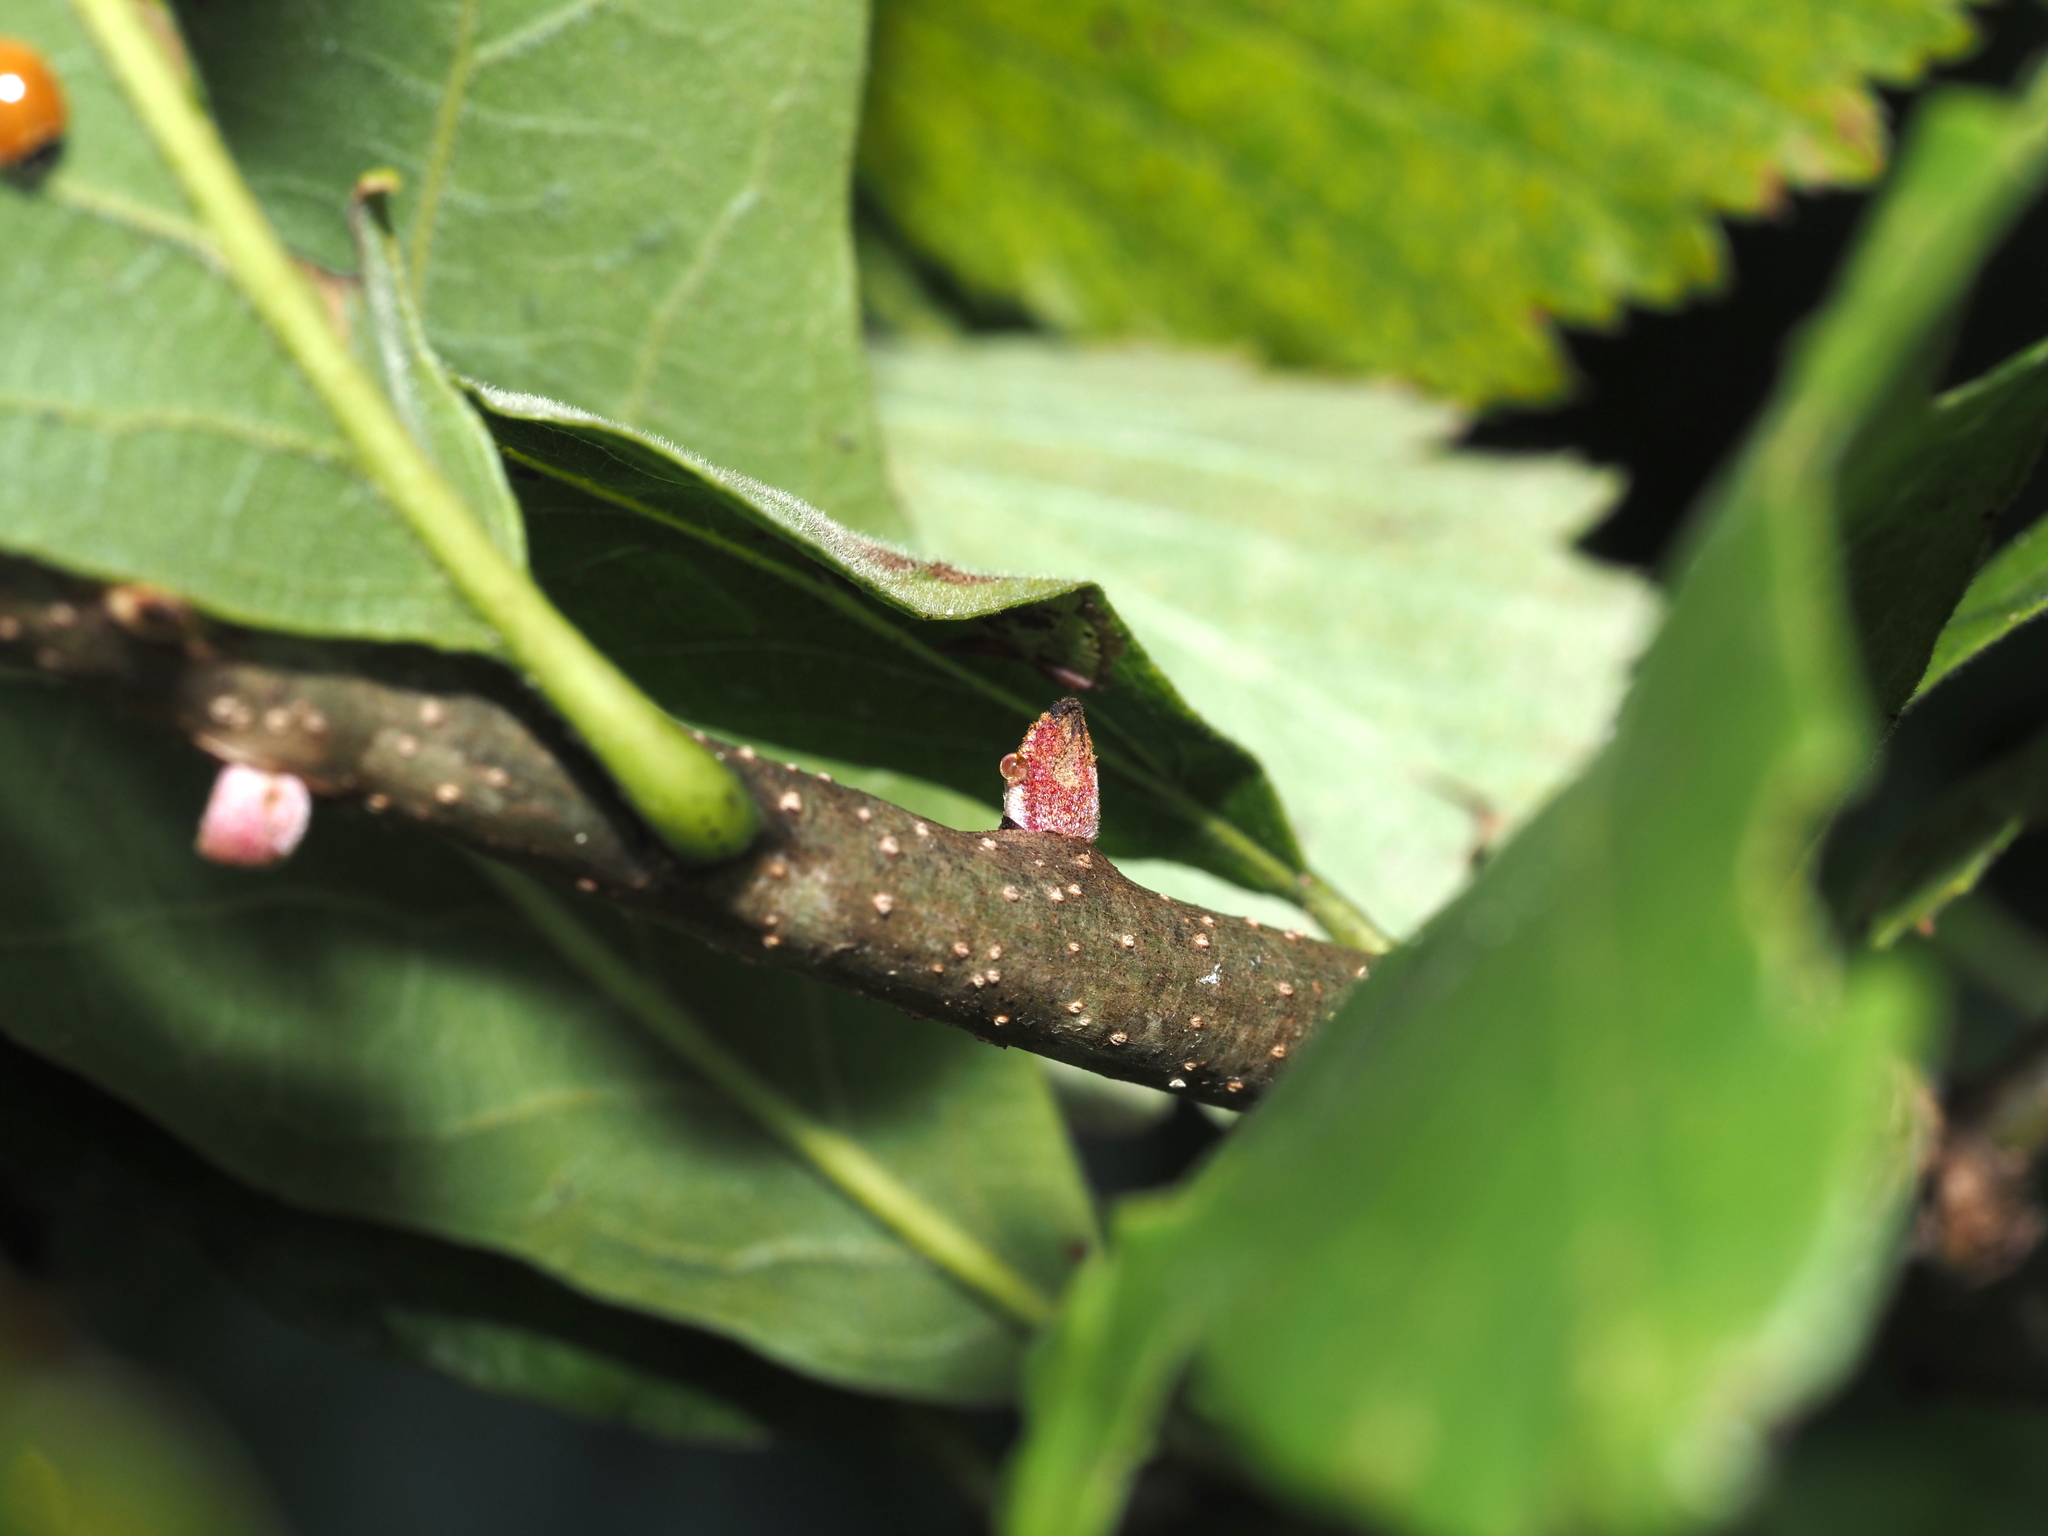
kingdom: Animalia
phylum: Arthropoda
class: Insecta
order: Hymenoptera
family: Cynipidae
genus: Disholcaspis
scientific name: Disholcaspis
